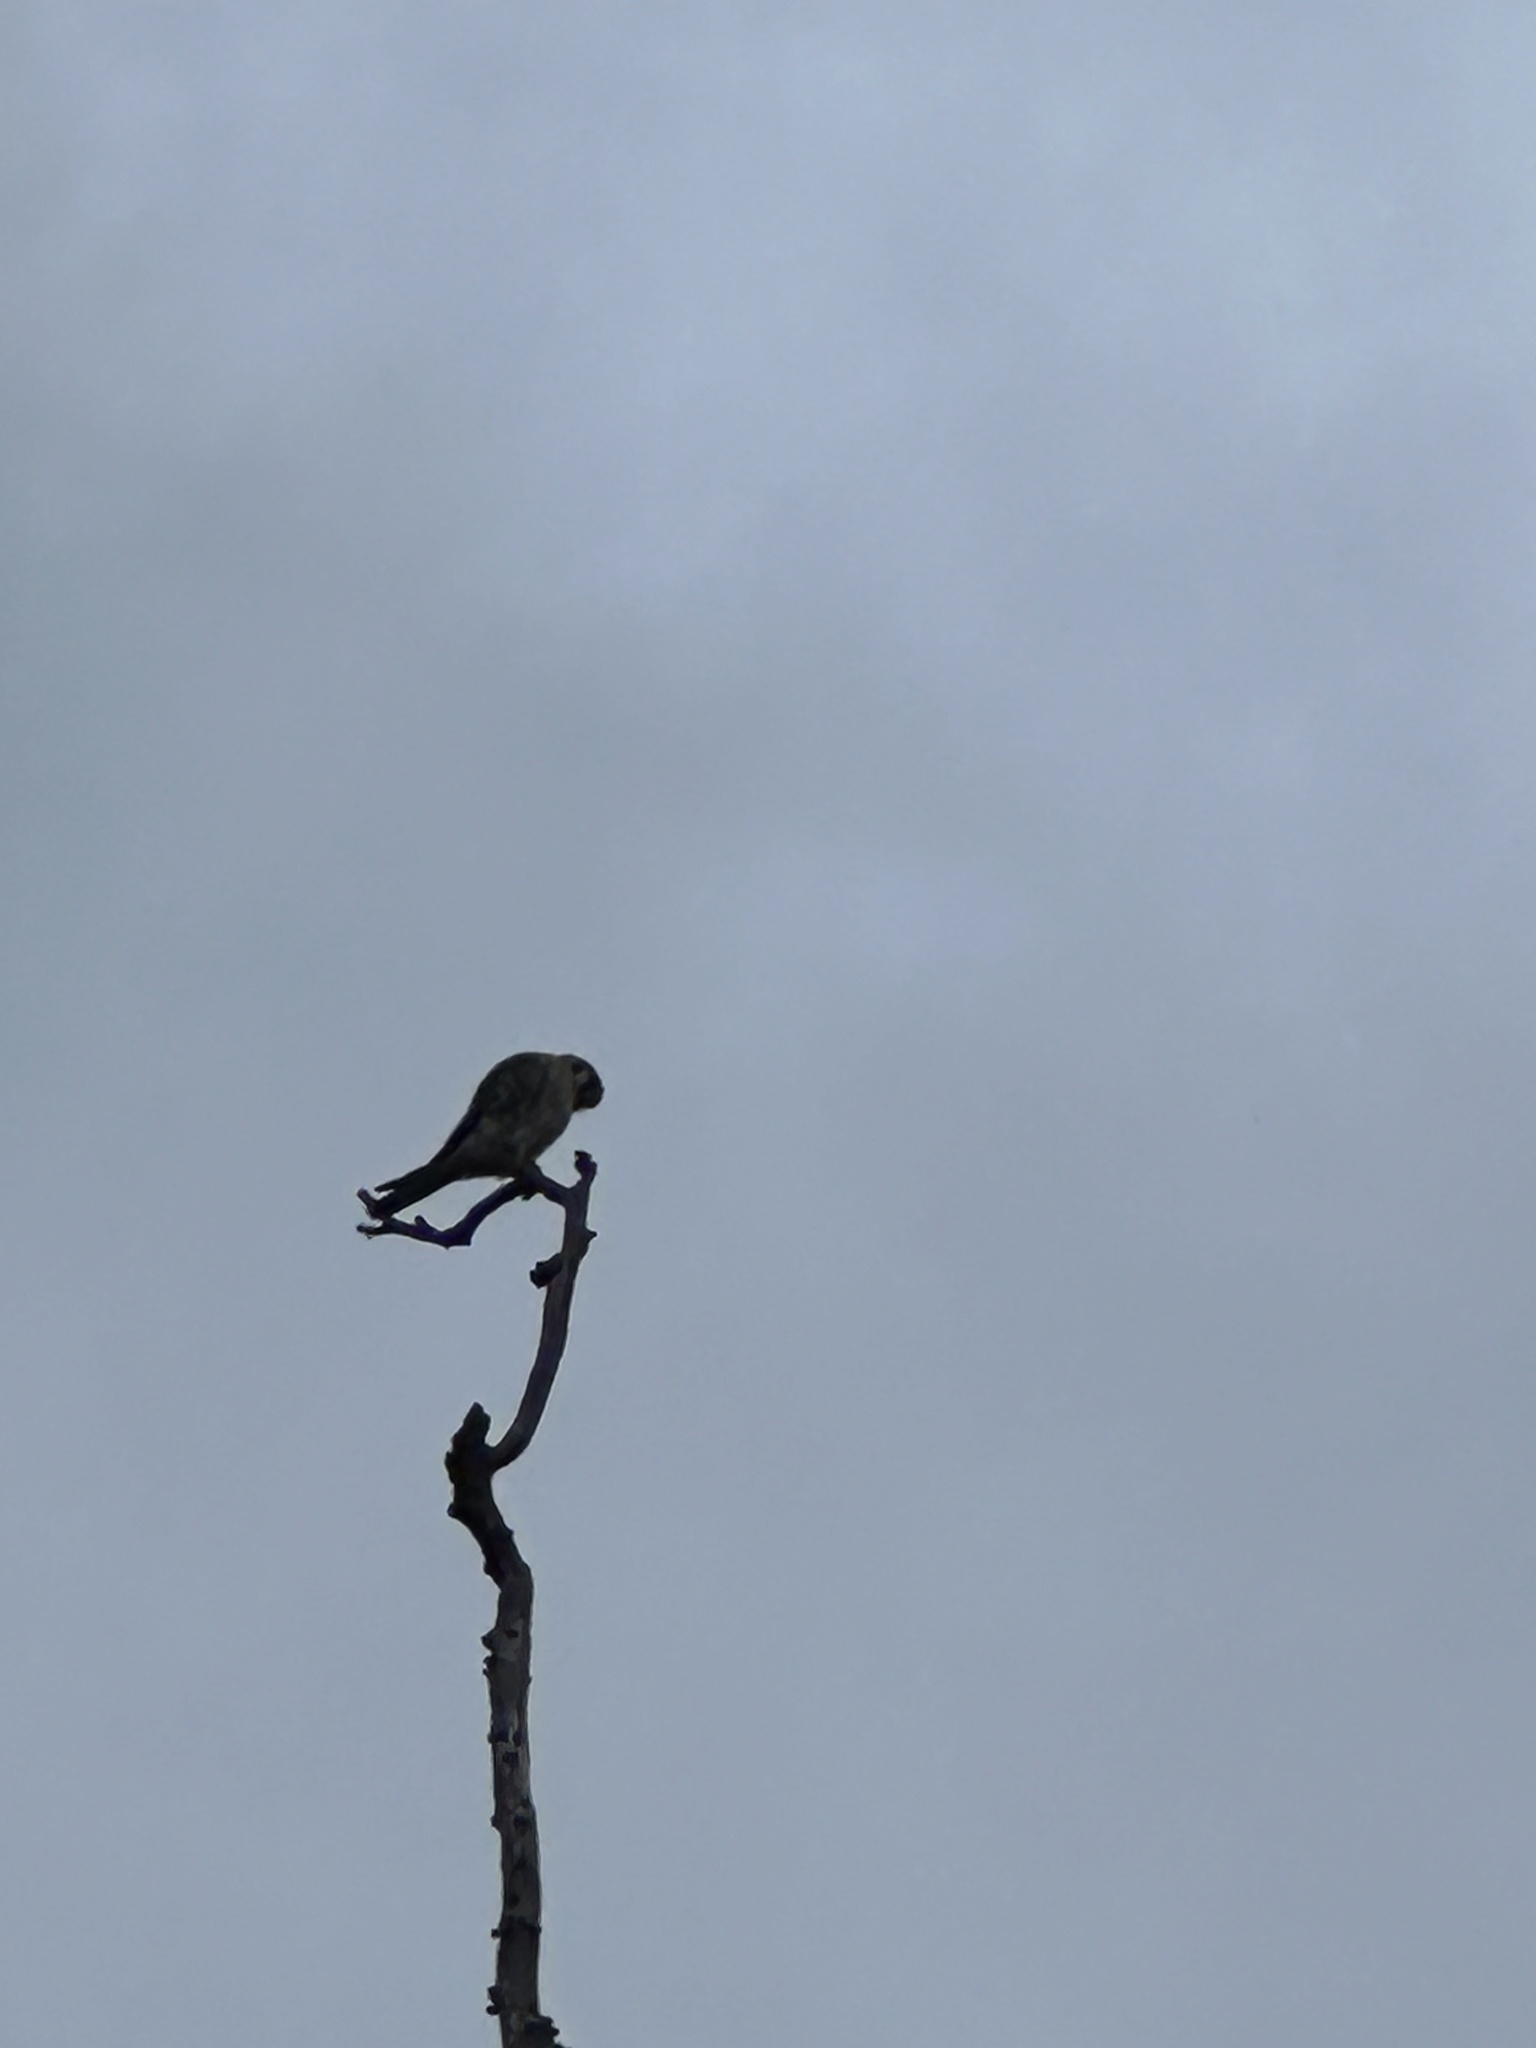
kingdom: Animalia
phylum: Chordata
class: Aves
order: Falconiformes
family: Falconidae
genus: Falco
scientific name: Falco sparverius
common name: American kestrel
